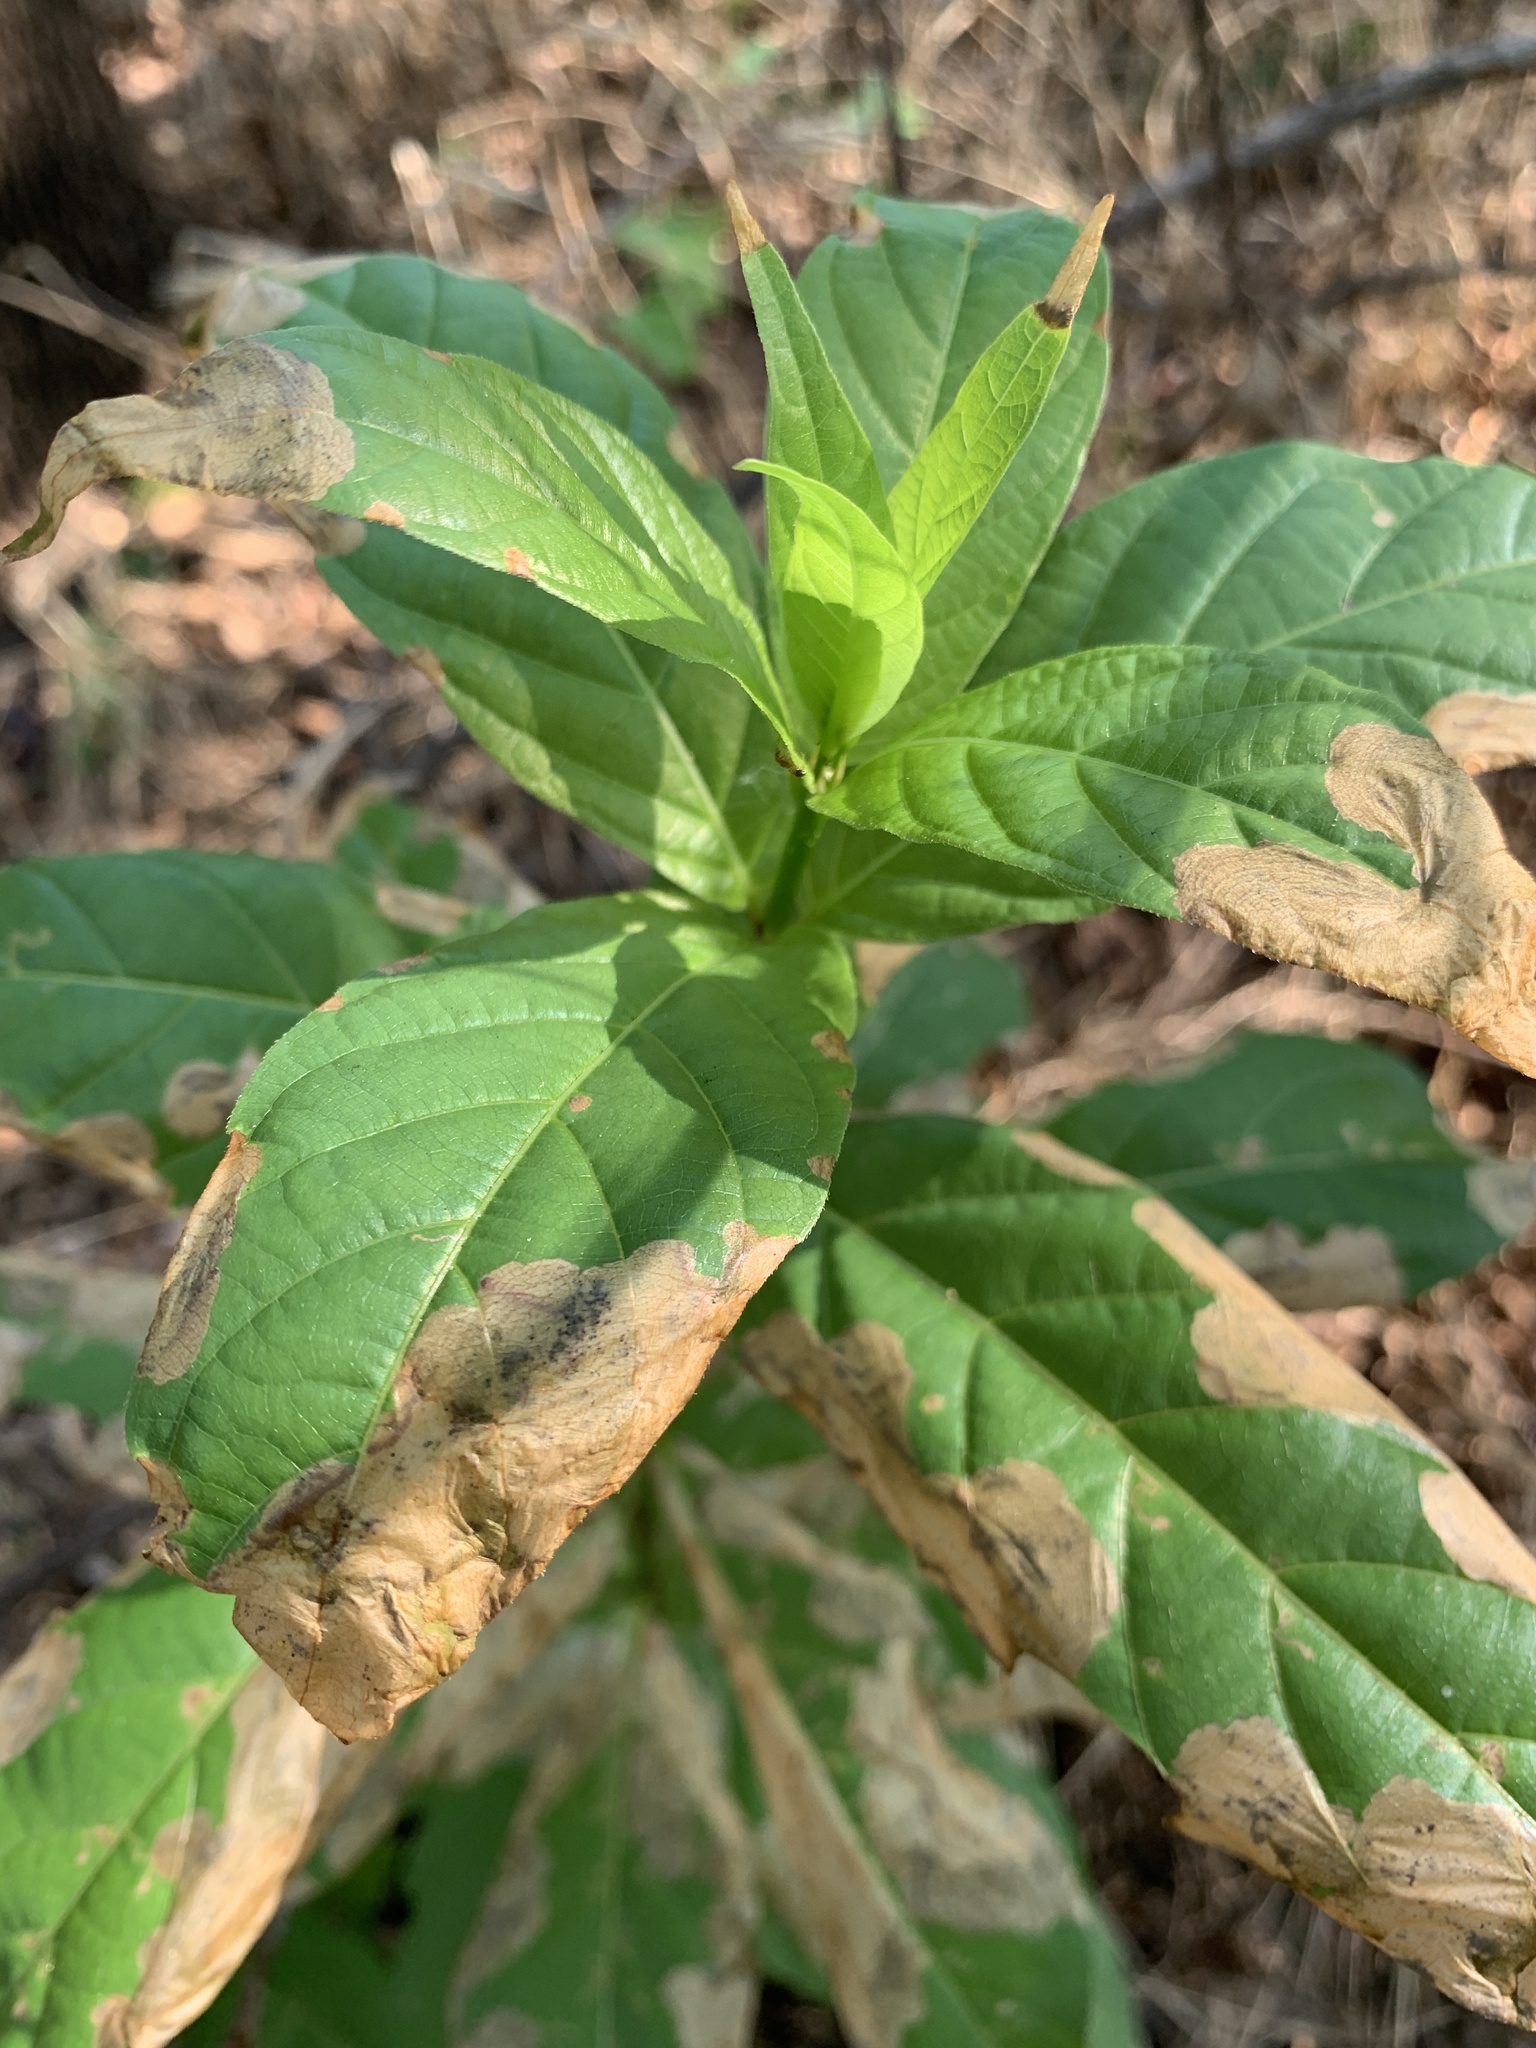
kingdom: Plantae
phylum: Tracheophyta
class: Magnoliopsida
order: Gentianales
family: Rubiaceae
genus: Cephalanthus
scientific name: Cephalanthus occidentalis
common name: Button-willow
